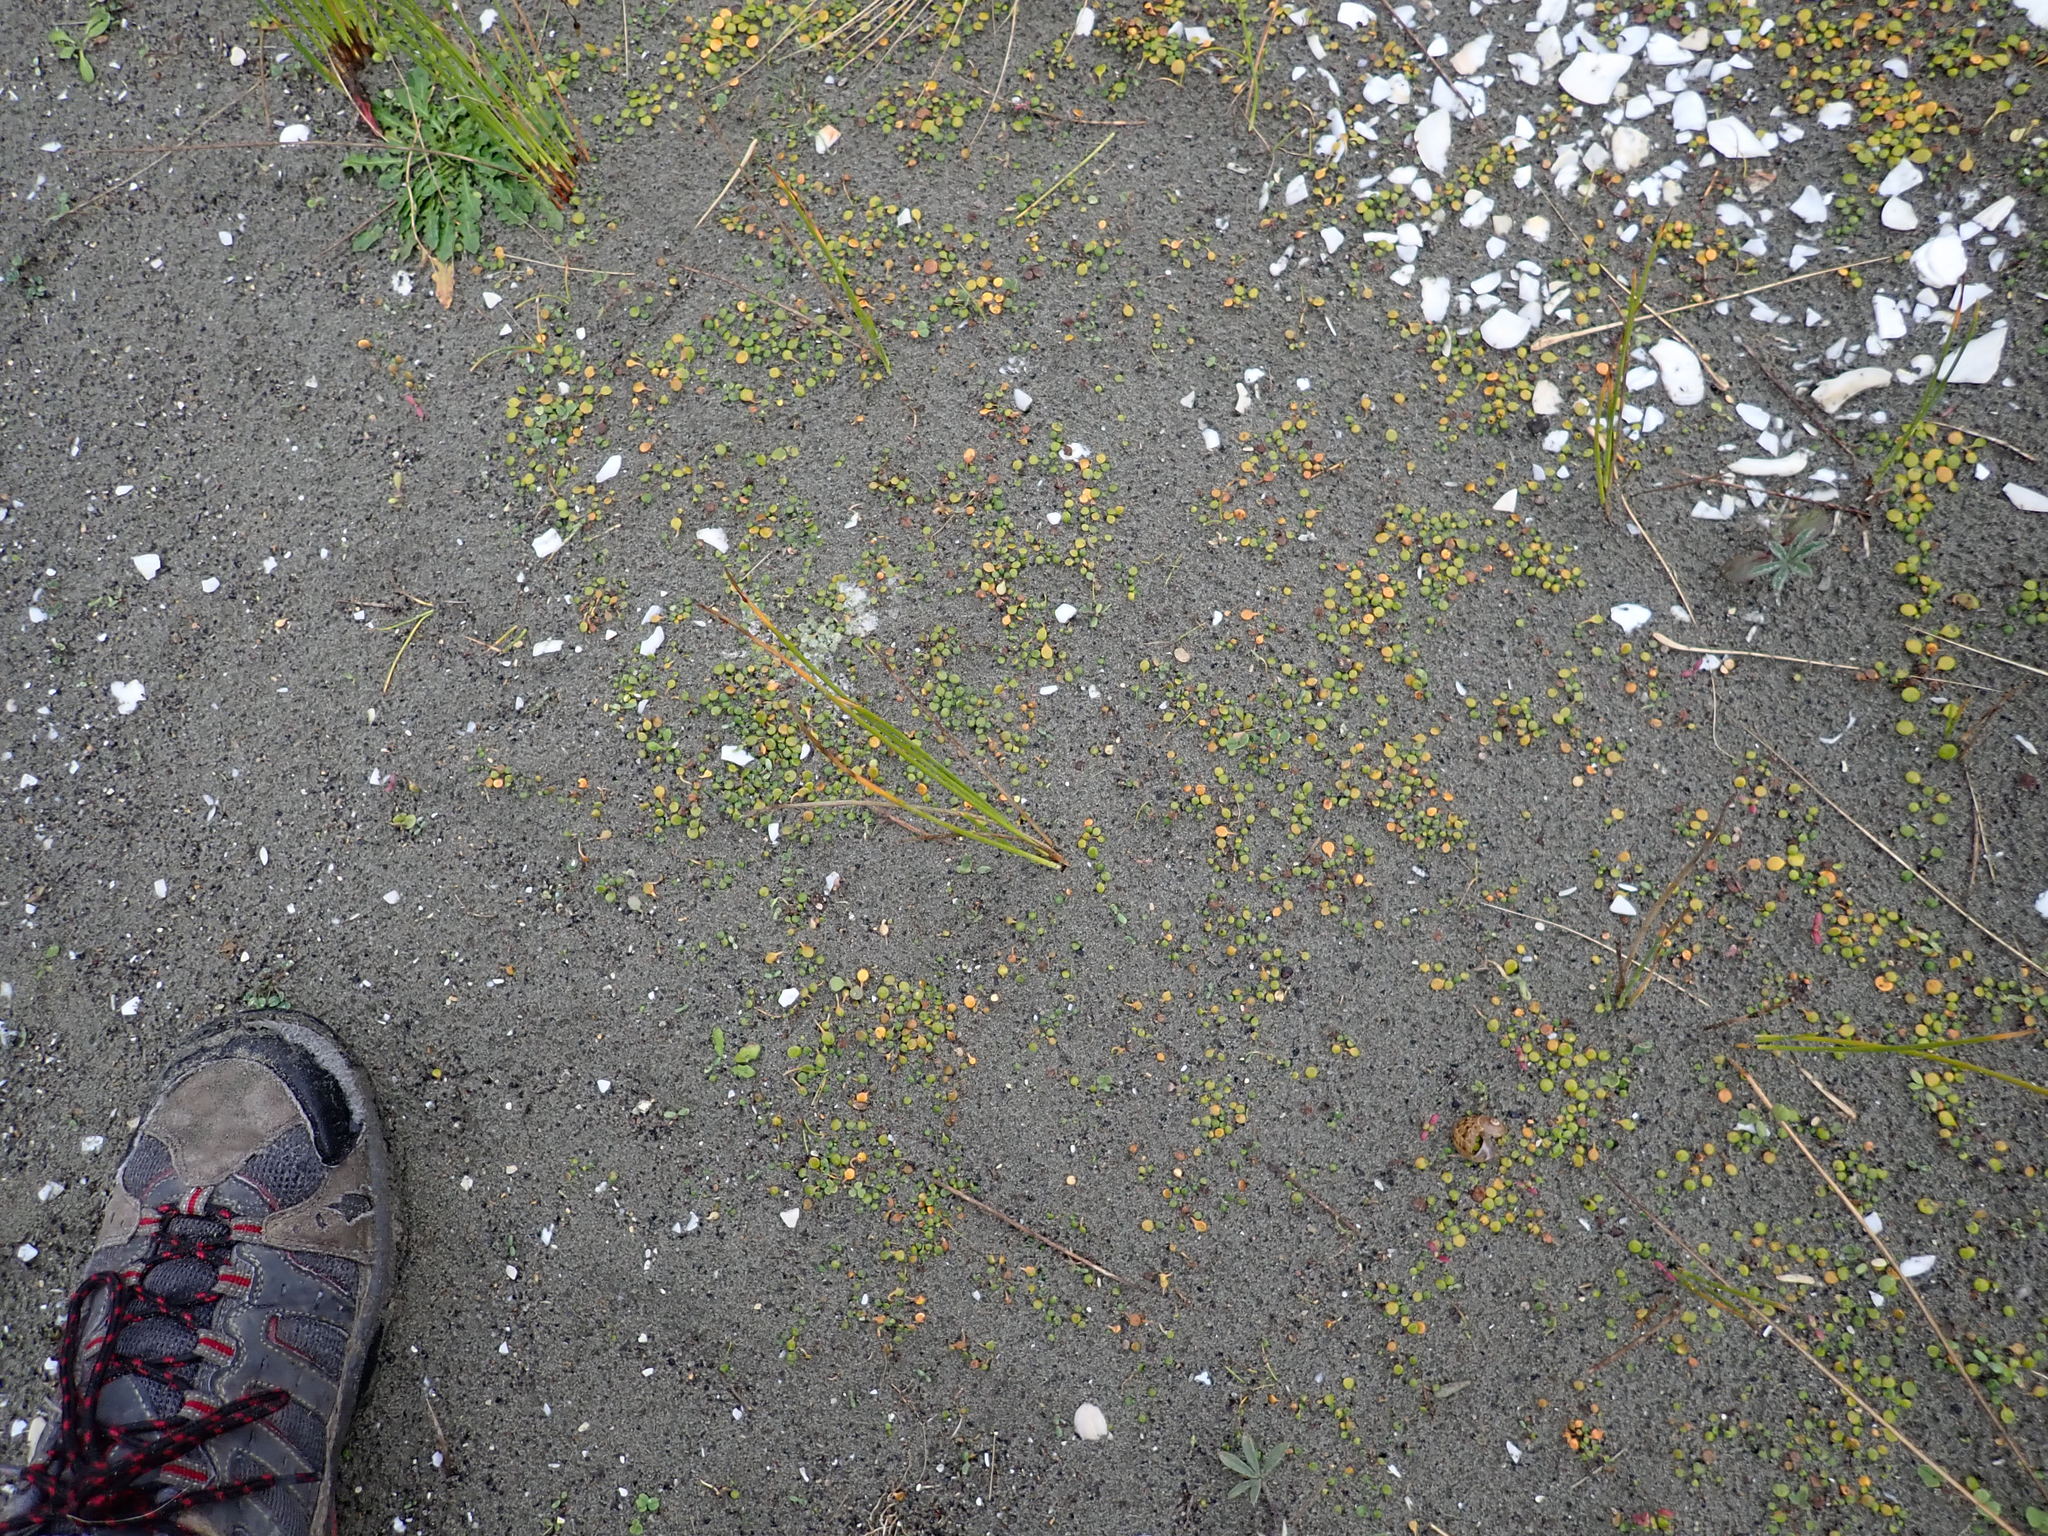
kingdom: Plantae
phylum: Tracheophyta
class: Magnoliopsida
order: Asterales
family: Goodeniaceae
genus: Goodenia
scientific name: Goodenia heenanii
